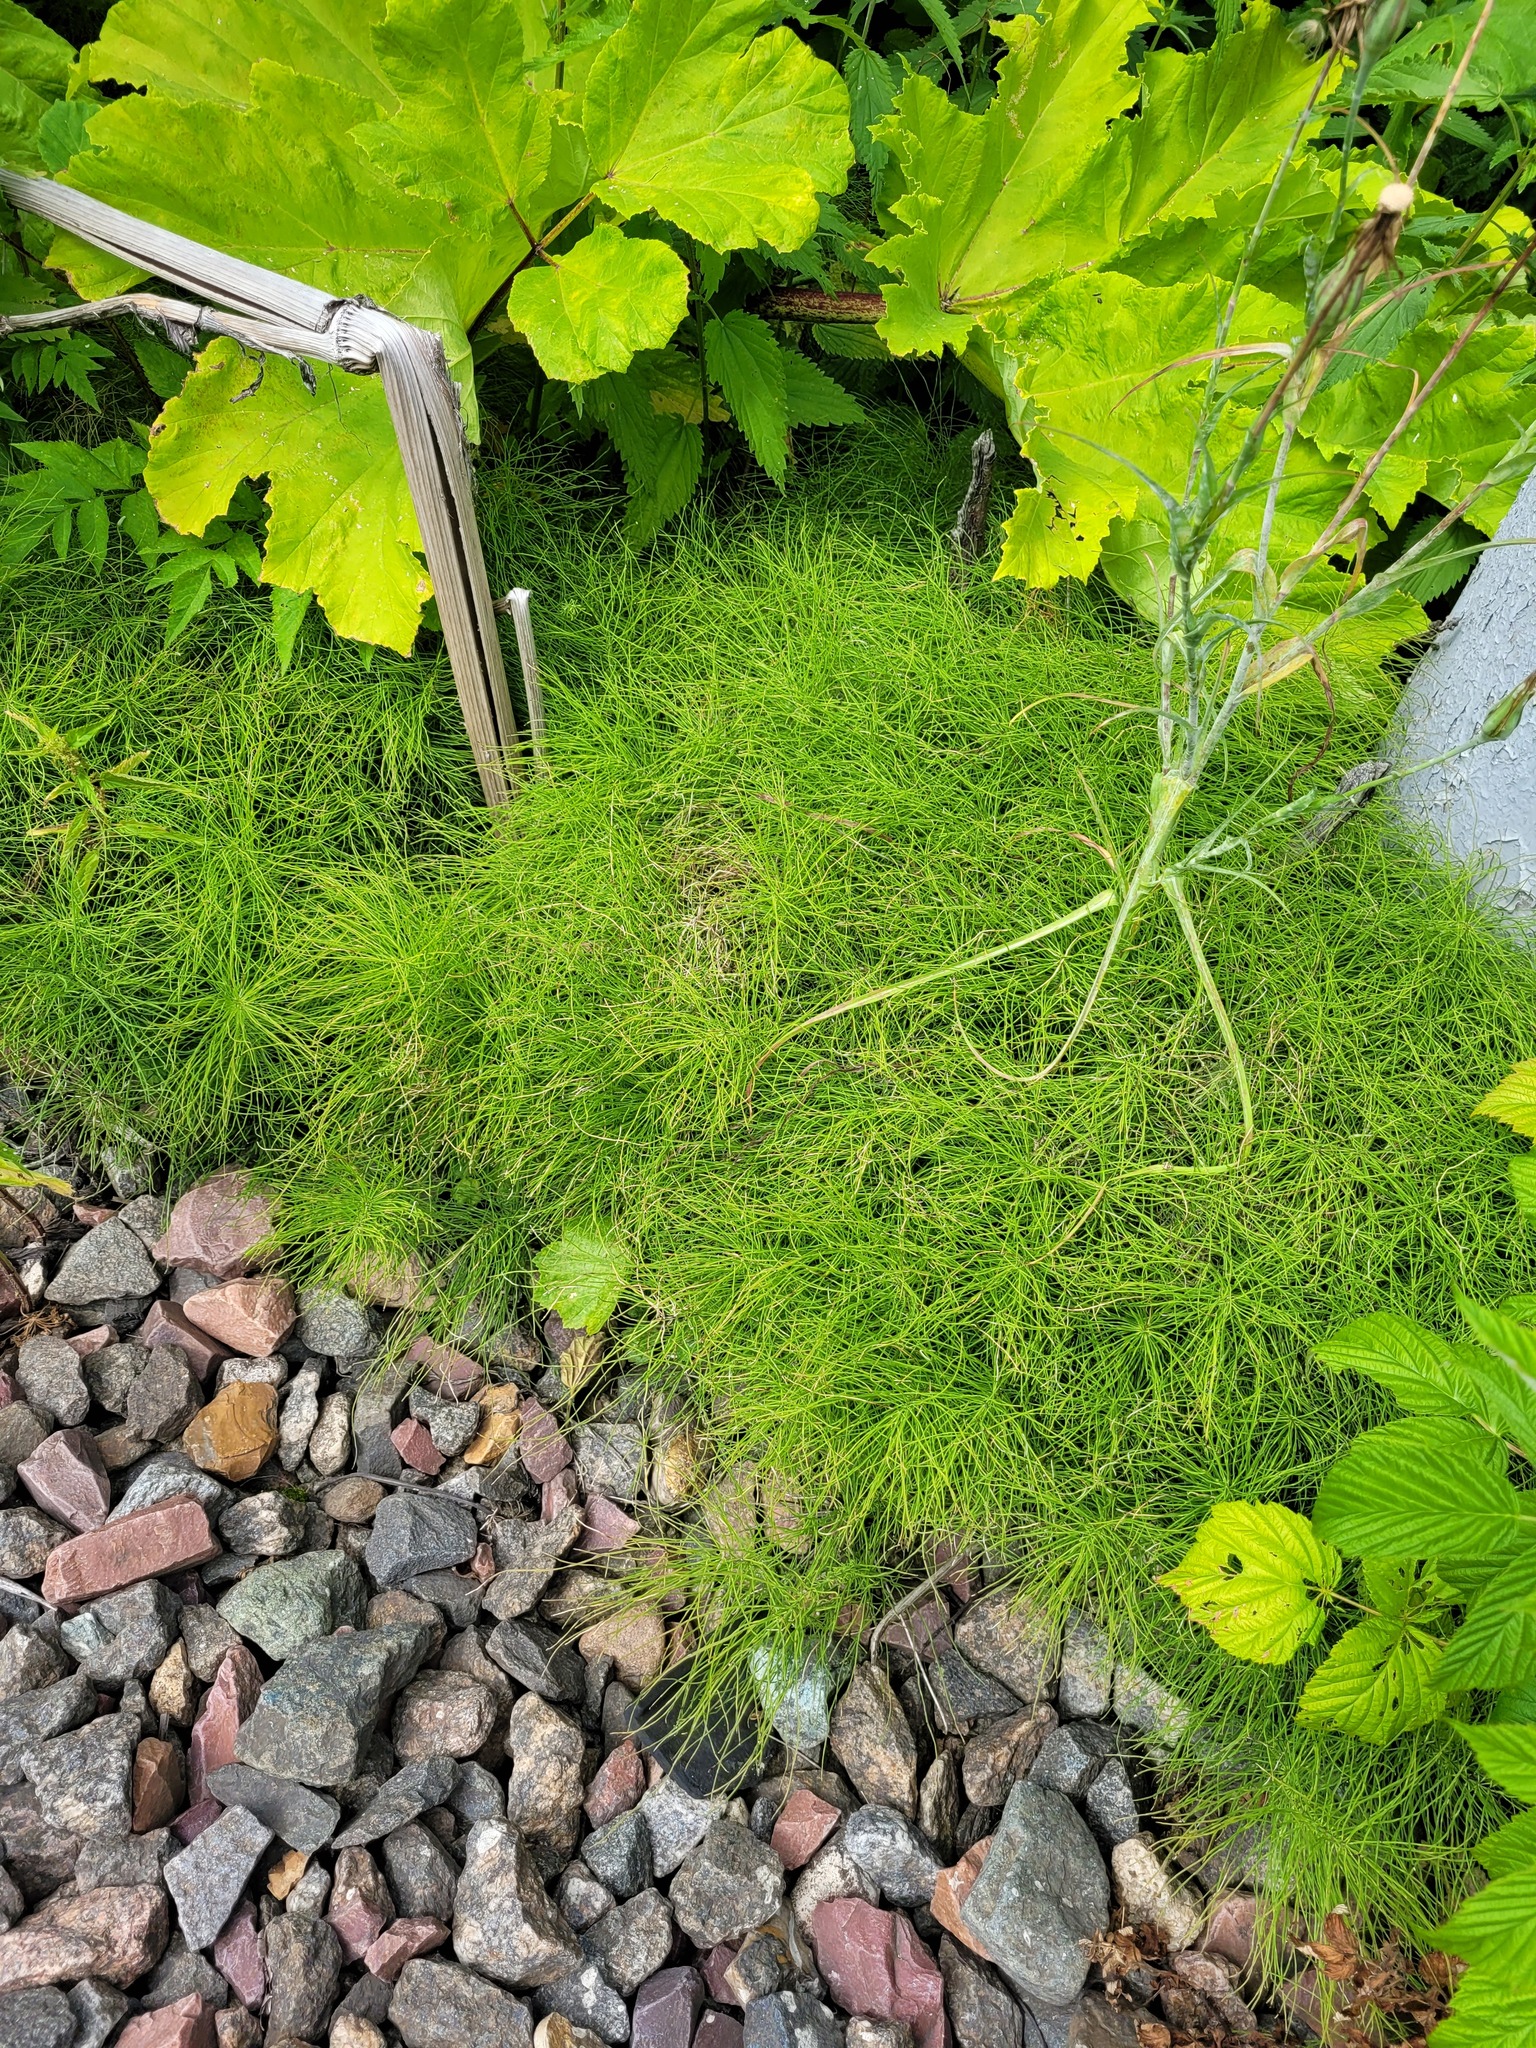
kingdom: Plantae
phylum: Tracheophyta
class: Polypodiopsida
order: Equisetales
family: Equisetaceae
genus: Equisetum
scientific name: Equisetum pratense
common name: Meadow horsetail
